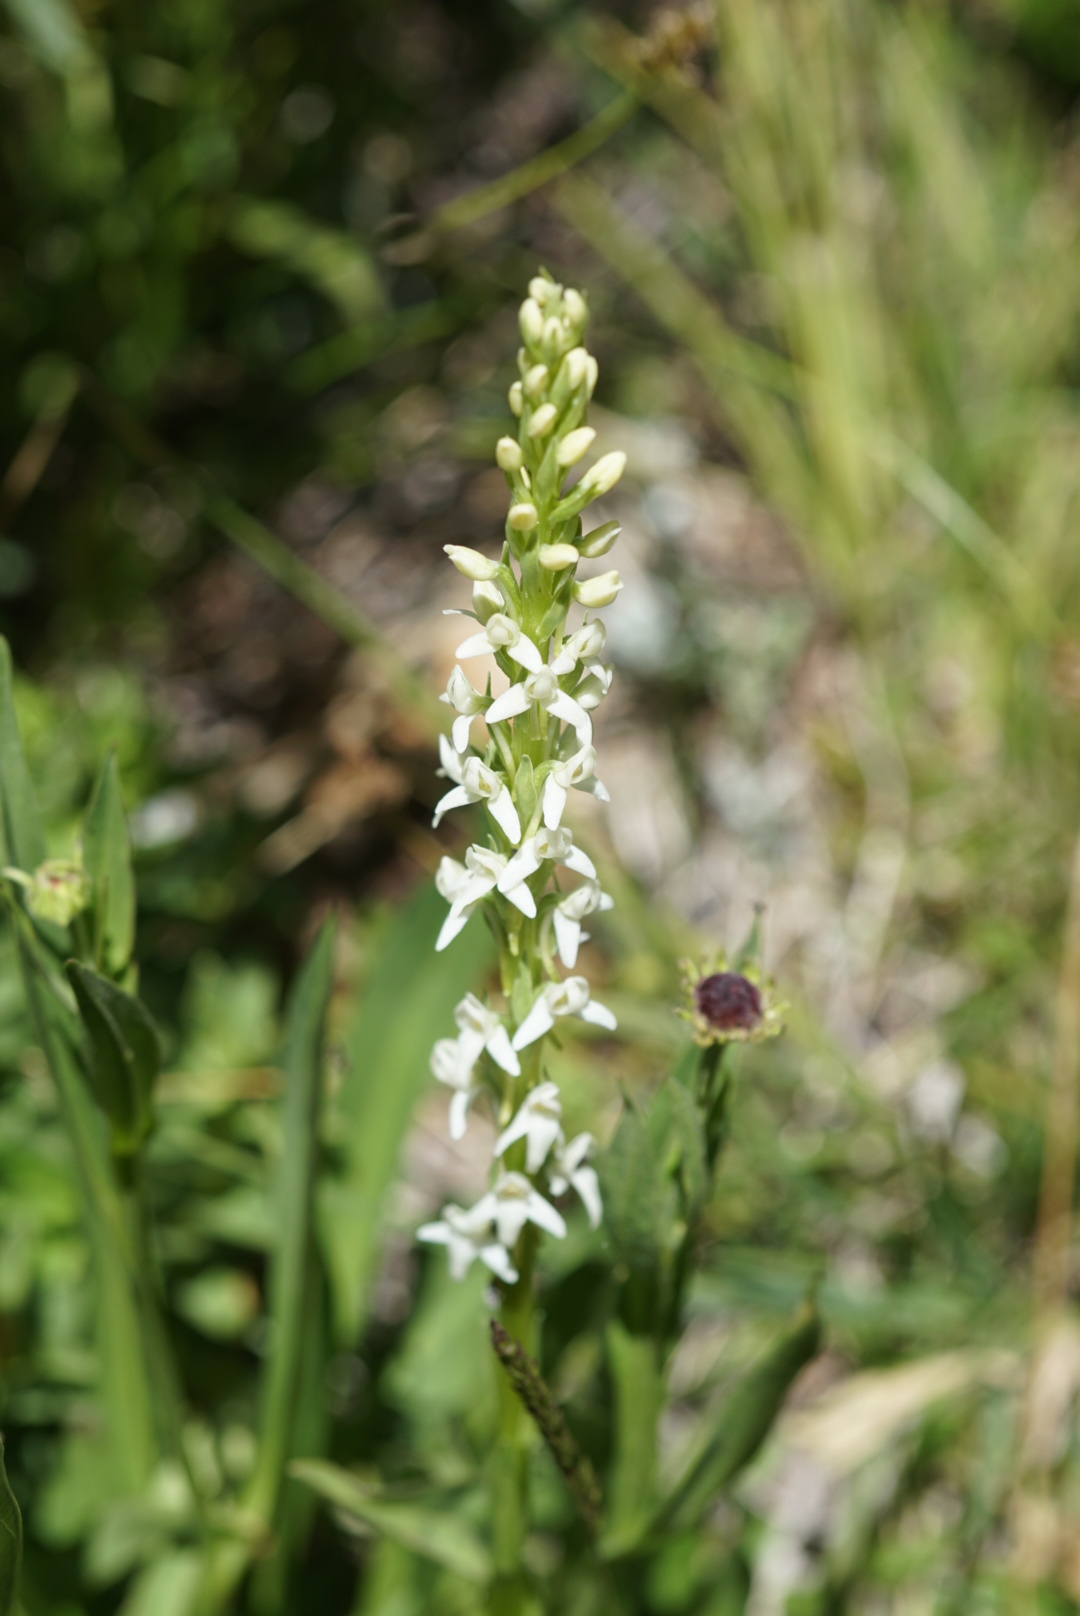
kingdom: Plantae
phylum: Tracheophyta
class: Liliopsida
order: Asparagales
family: Orchidaceae
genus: Platanthera
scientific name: Platanthera dilatata
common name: Bog candles
